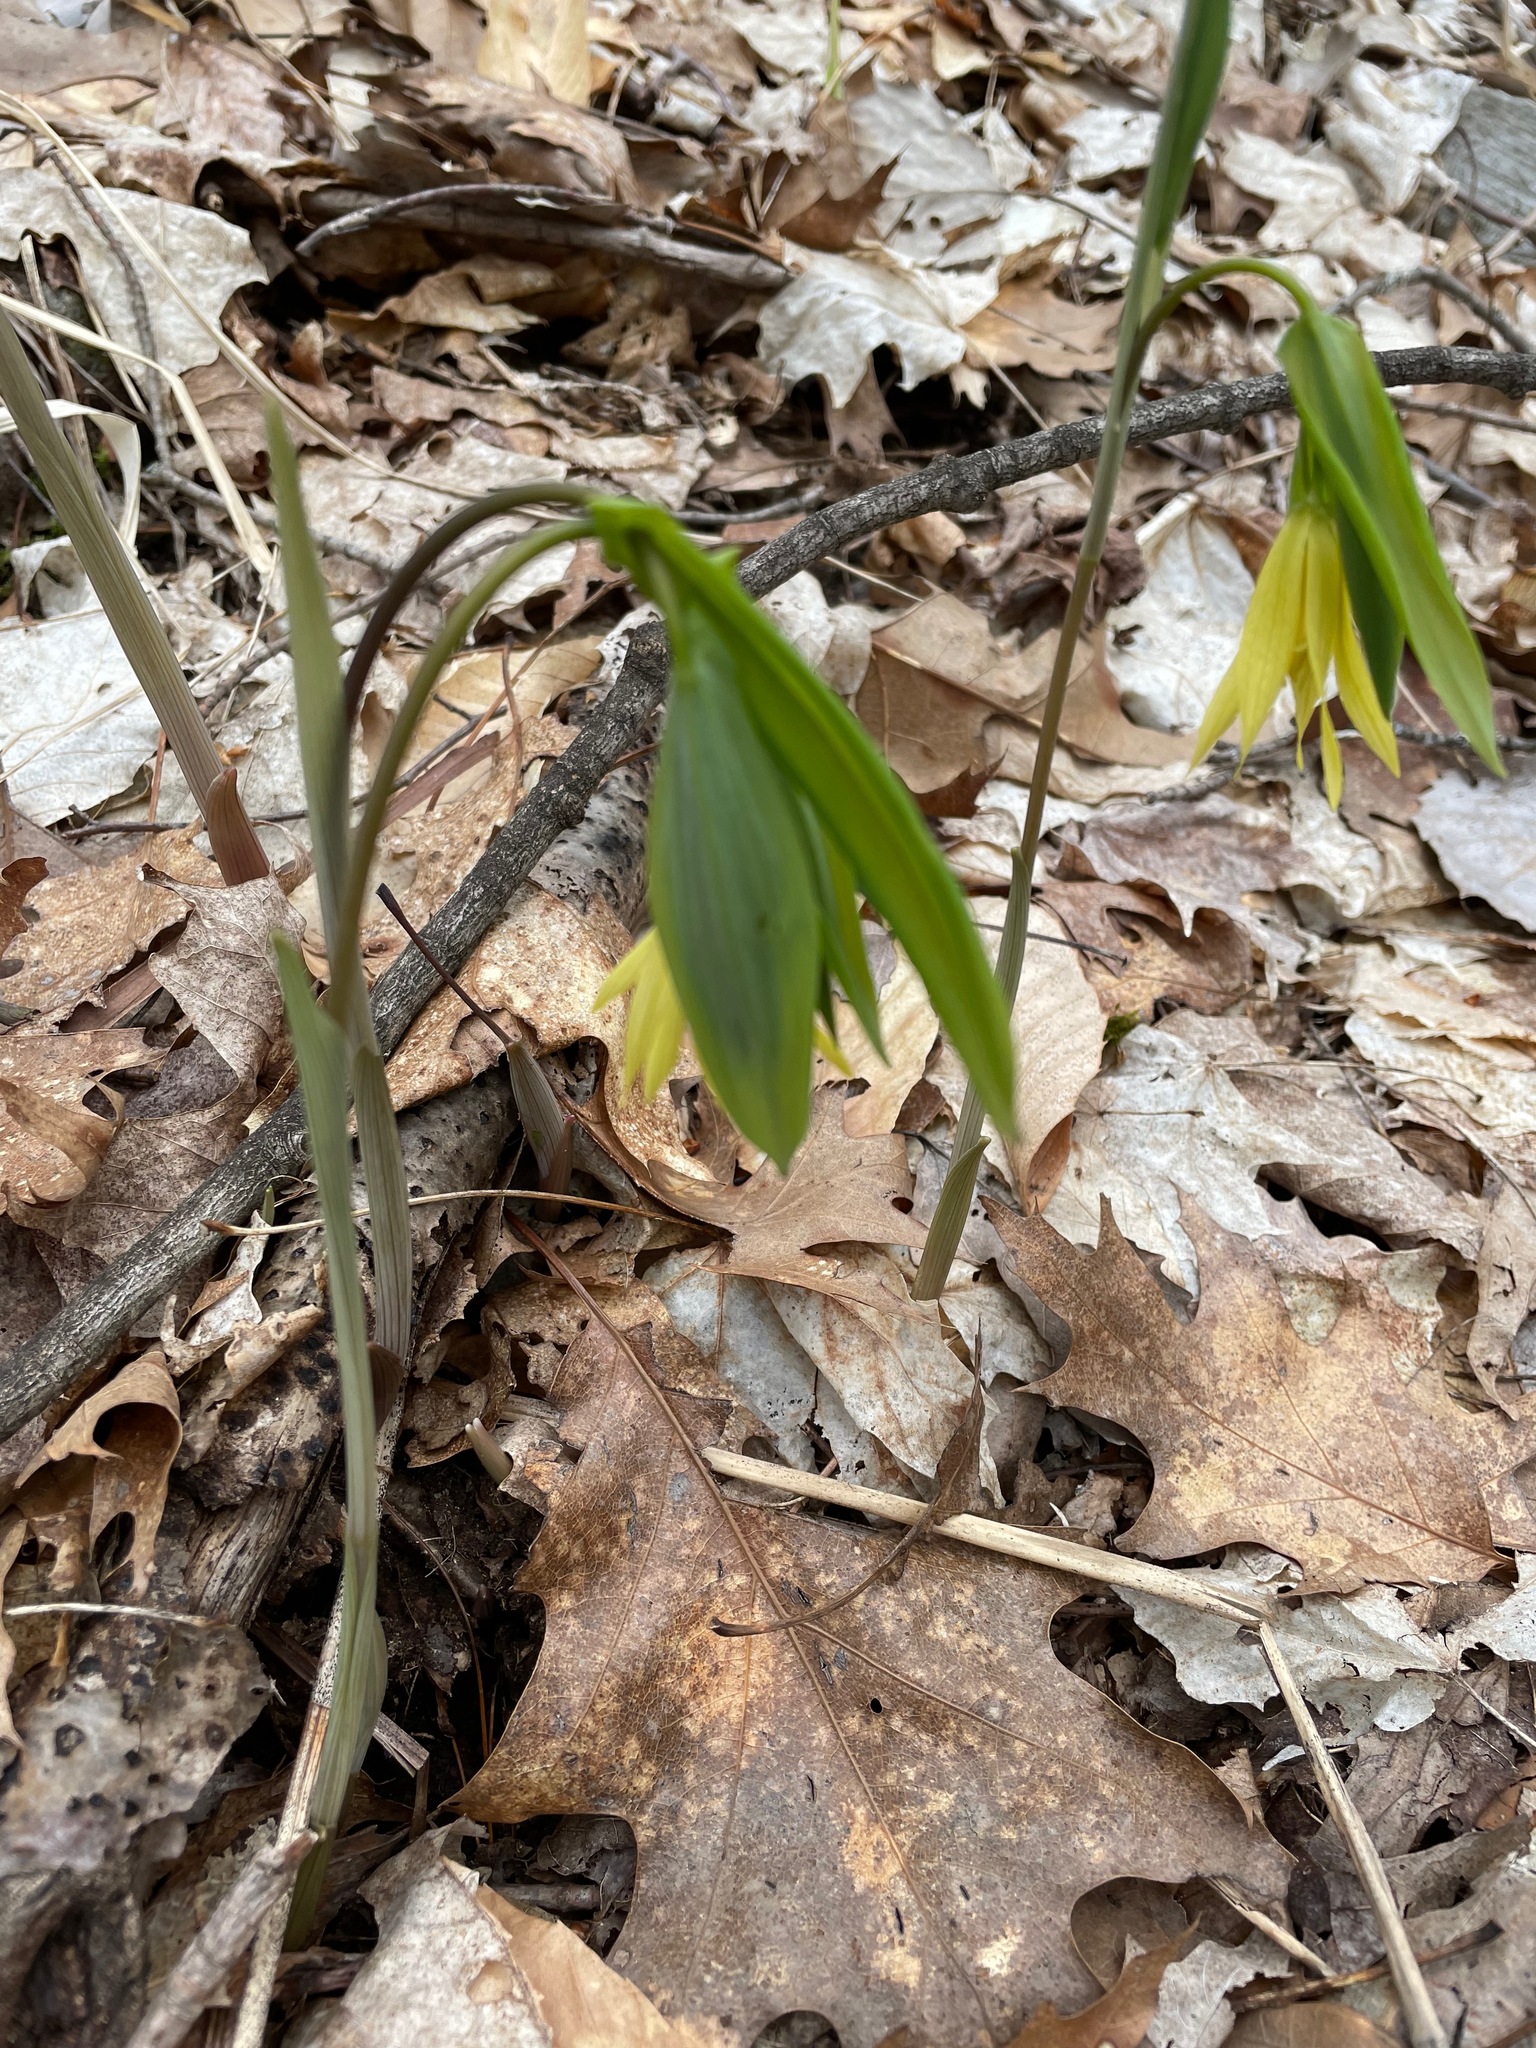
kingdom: Plantae
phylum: Tracheophyta
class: Liliopsida
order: Liliales
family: Colchicaceae
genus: Uvularia
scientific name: Uvularia grandiflora
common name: Bellwort
